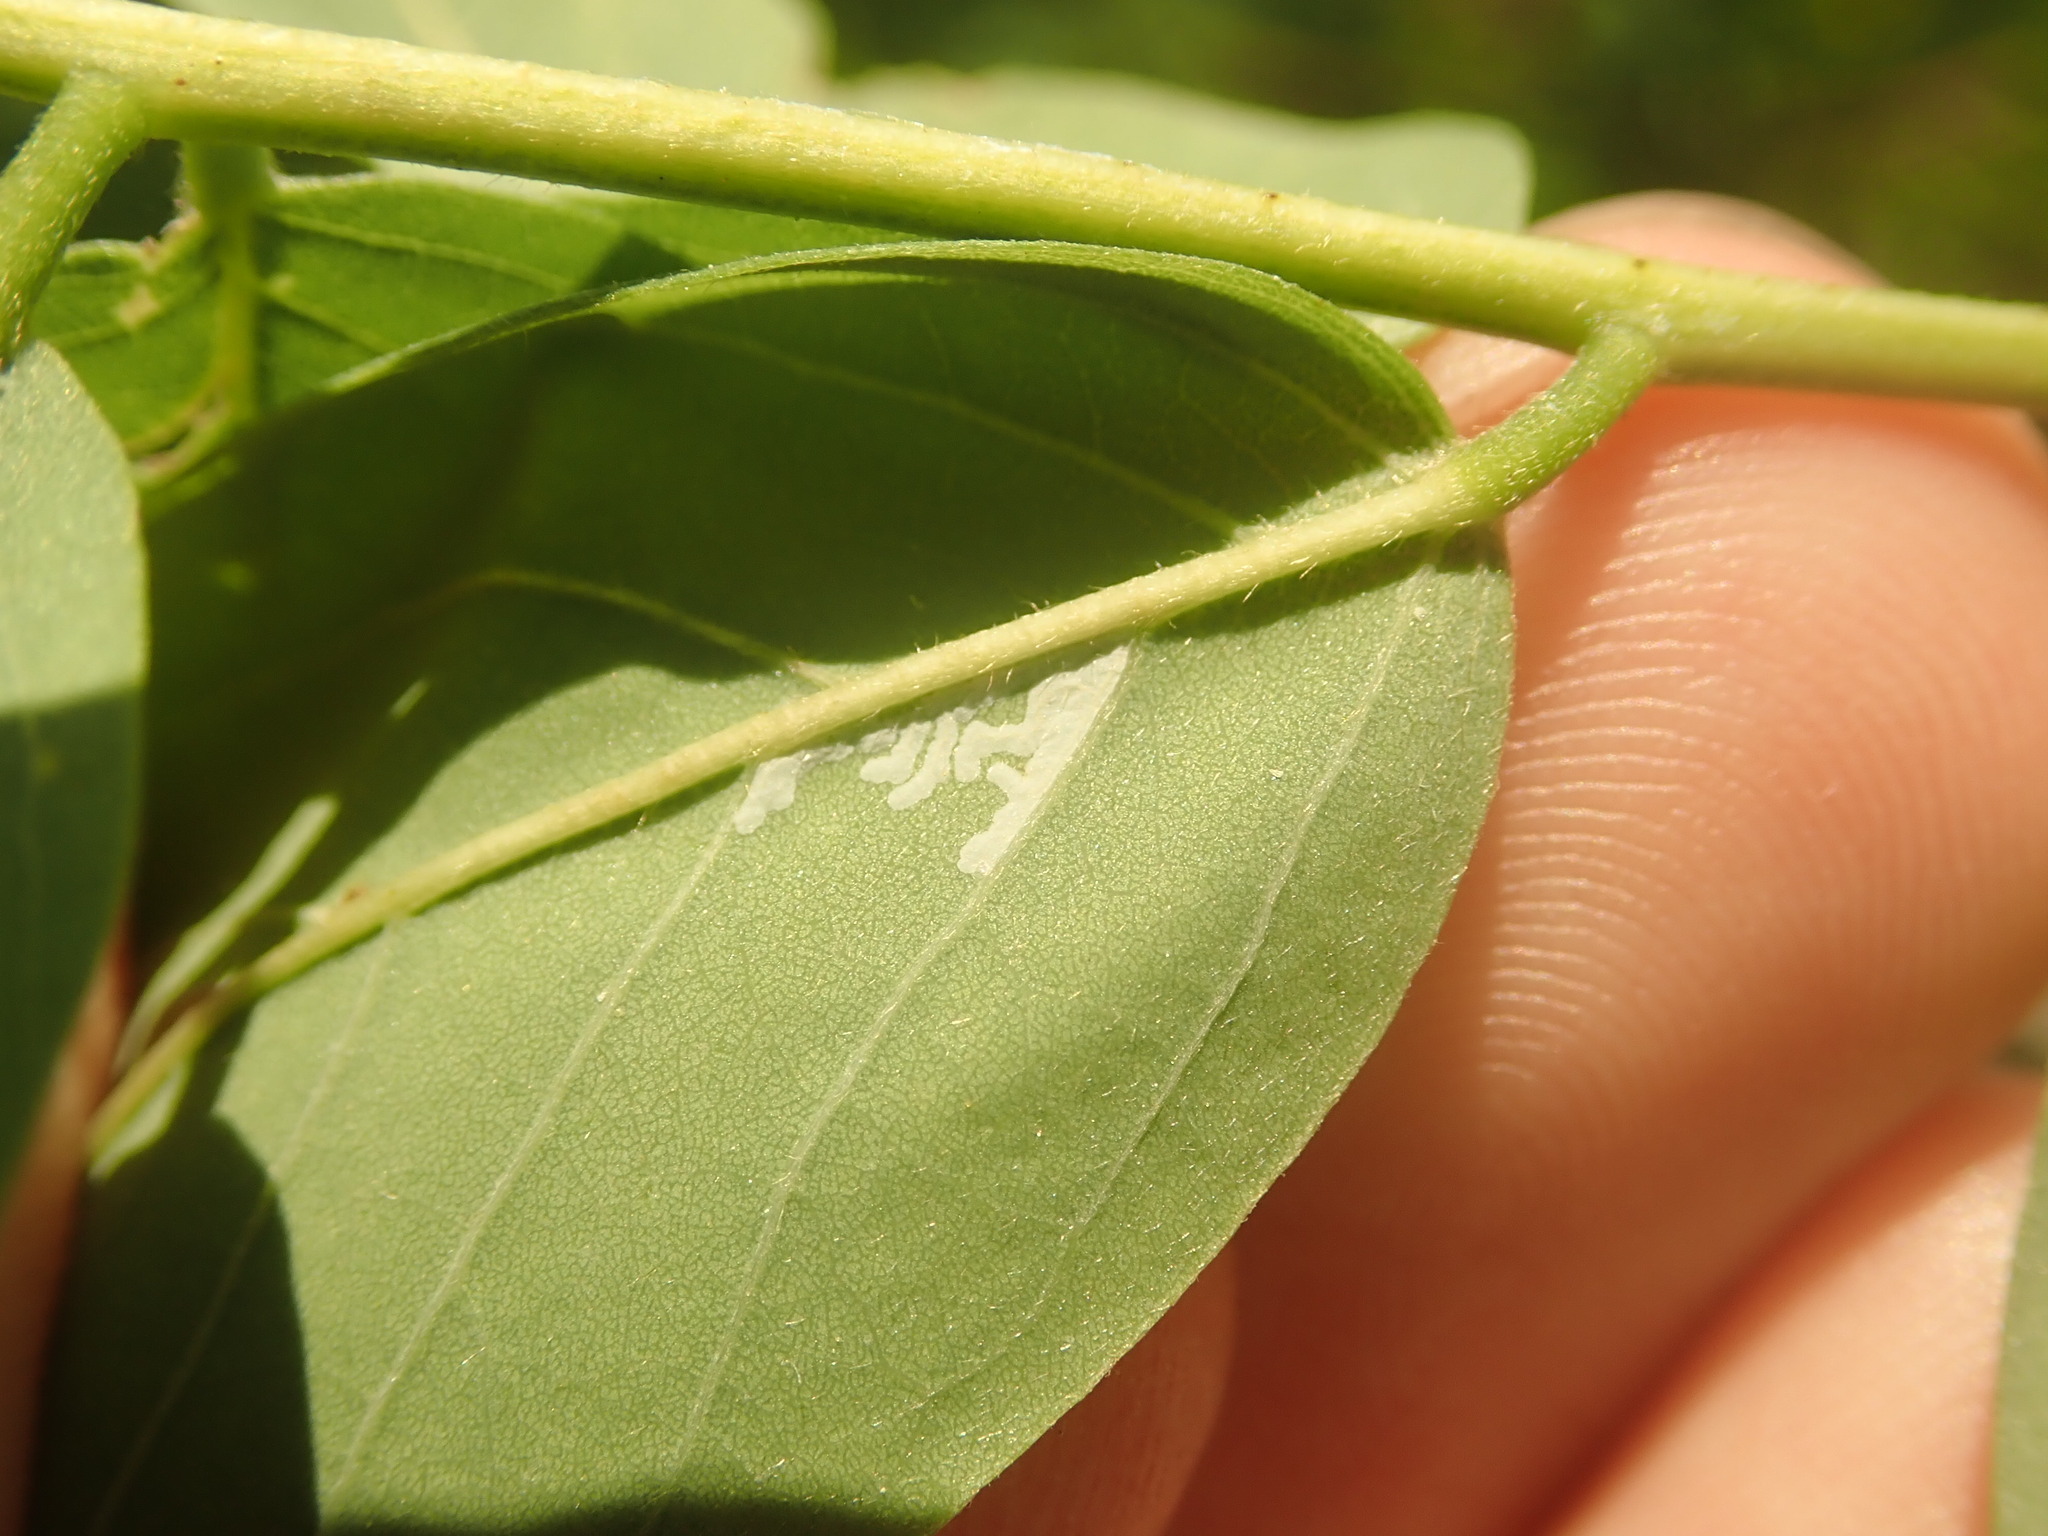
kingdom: Animalia
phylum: Arthropoda
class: Insecta
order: Lepidoptera
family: Gracillariidae
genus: Parectopa
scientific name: Parectopa robiniella
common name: Locust digitate leafminer
